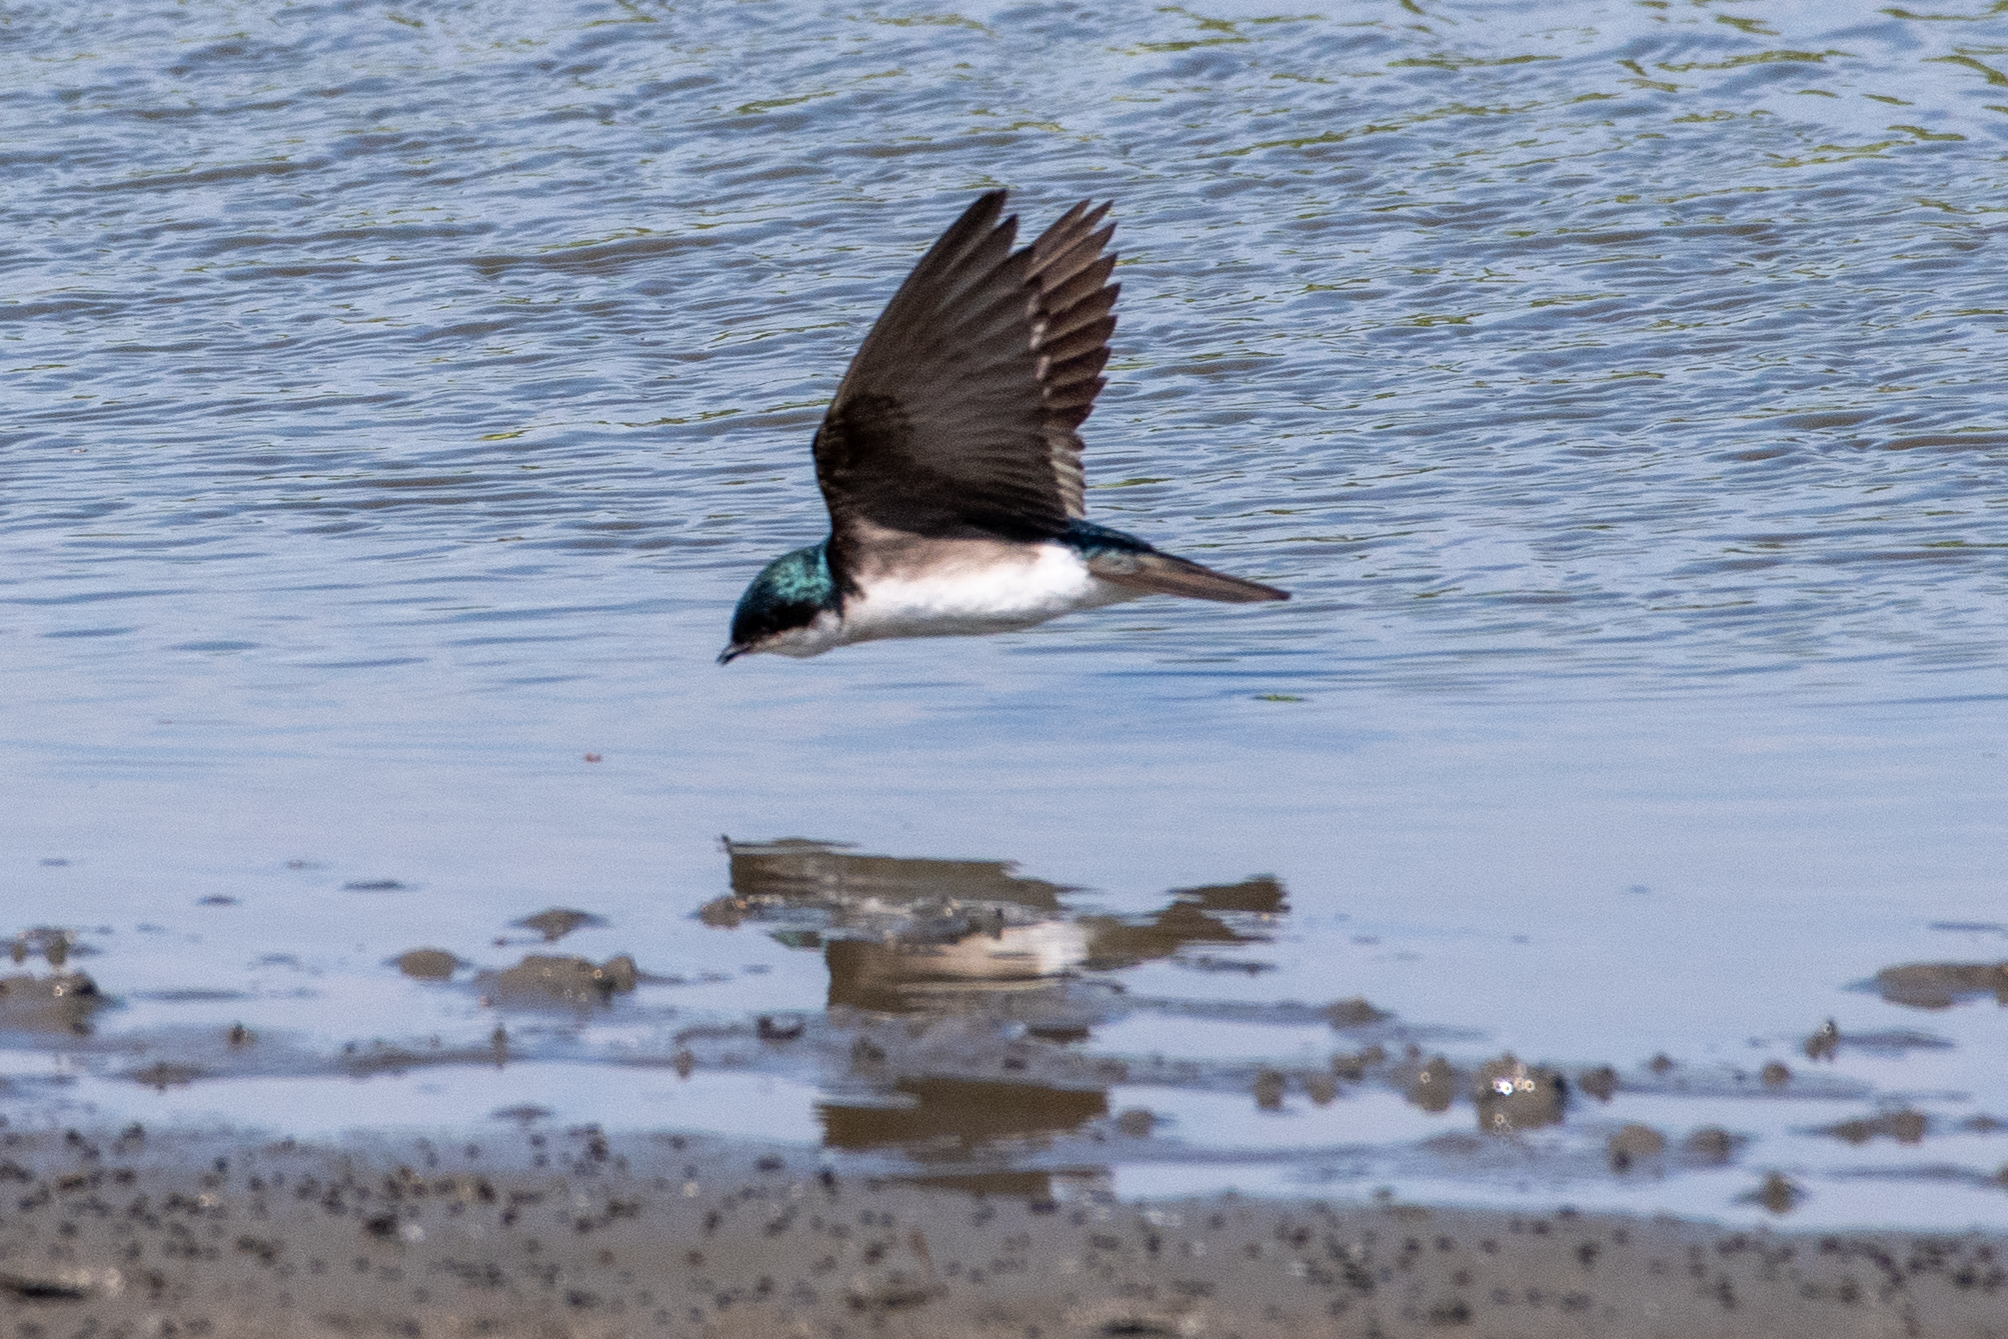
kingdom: Animalia
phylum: Chordata
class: Aves
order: Passeriformes
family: Hirundinidae
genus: Tachycineta
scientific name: Tachycineta bicolor
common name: Tree swallow
